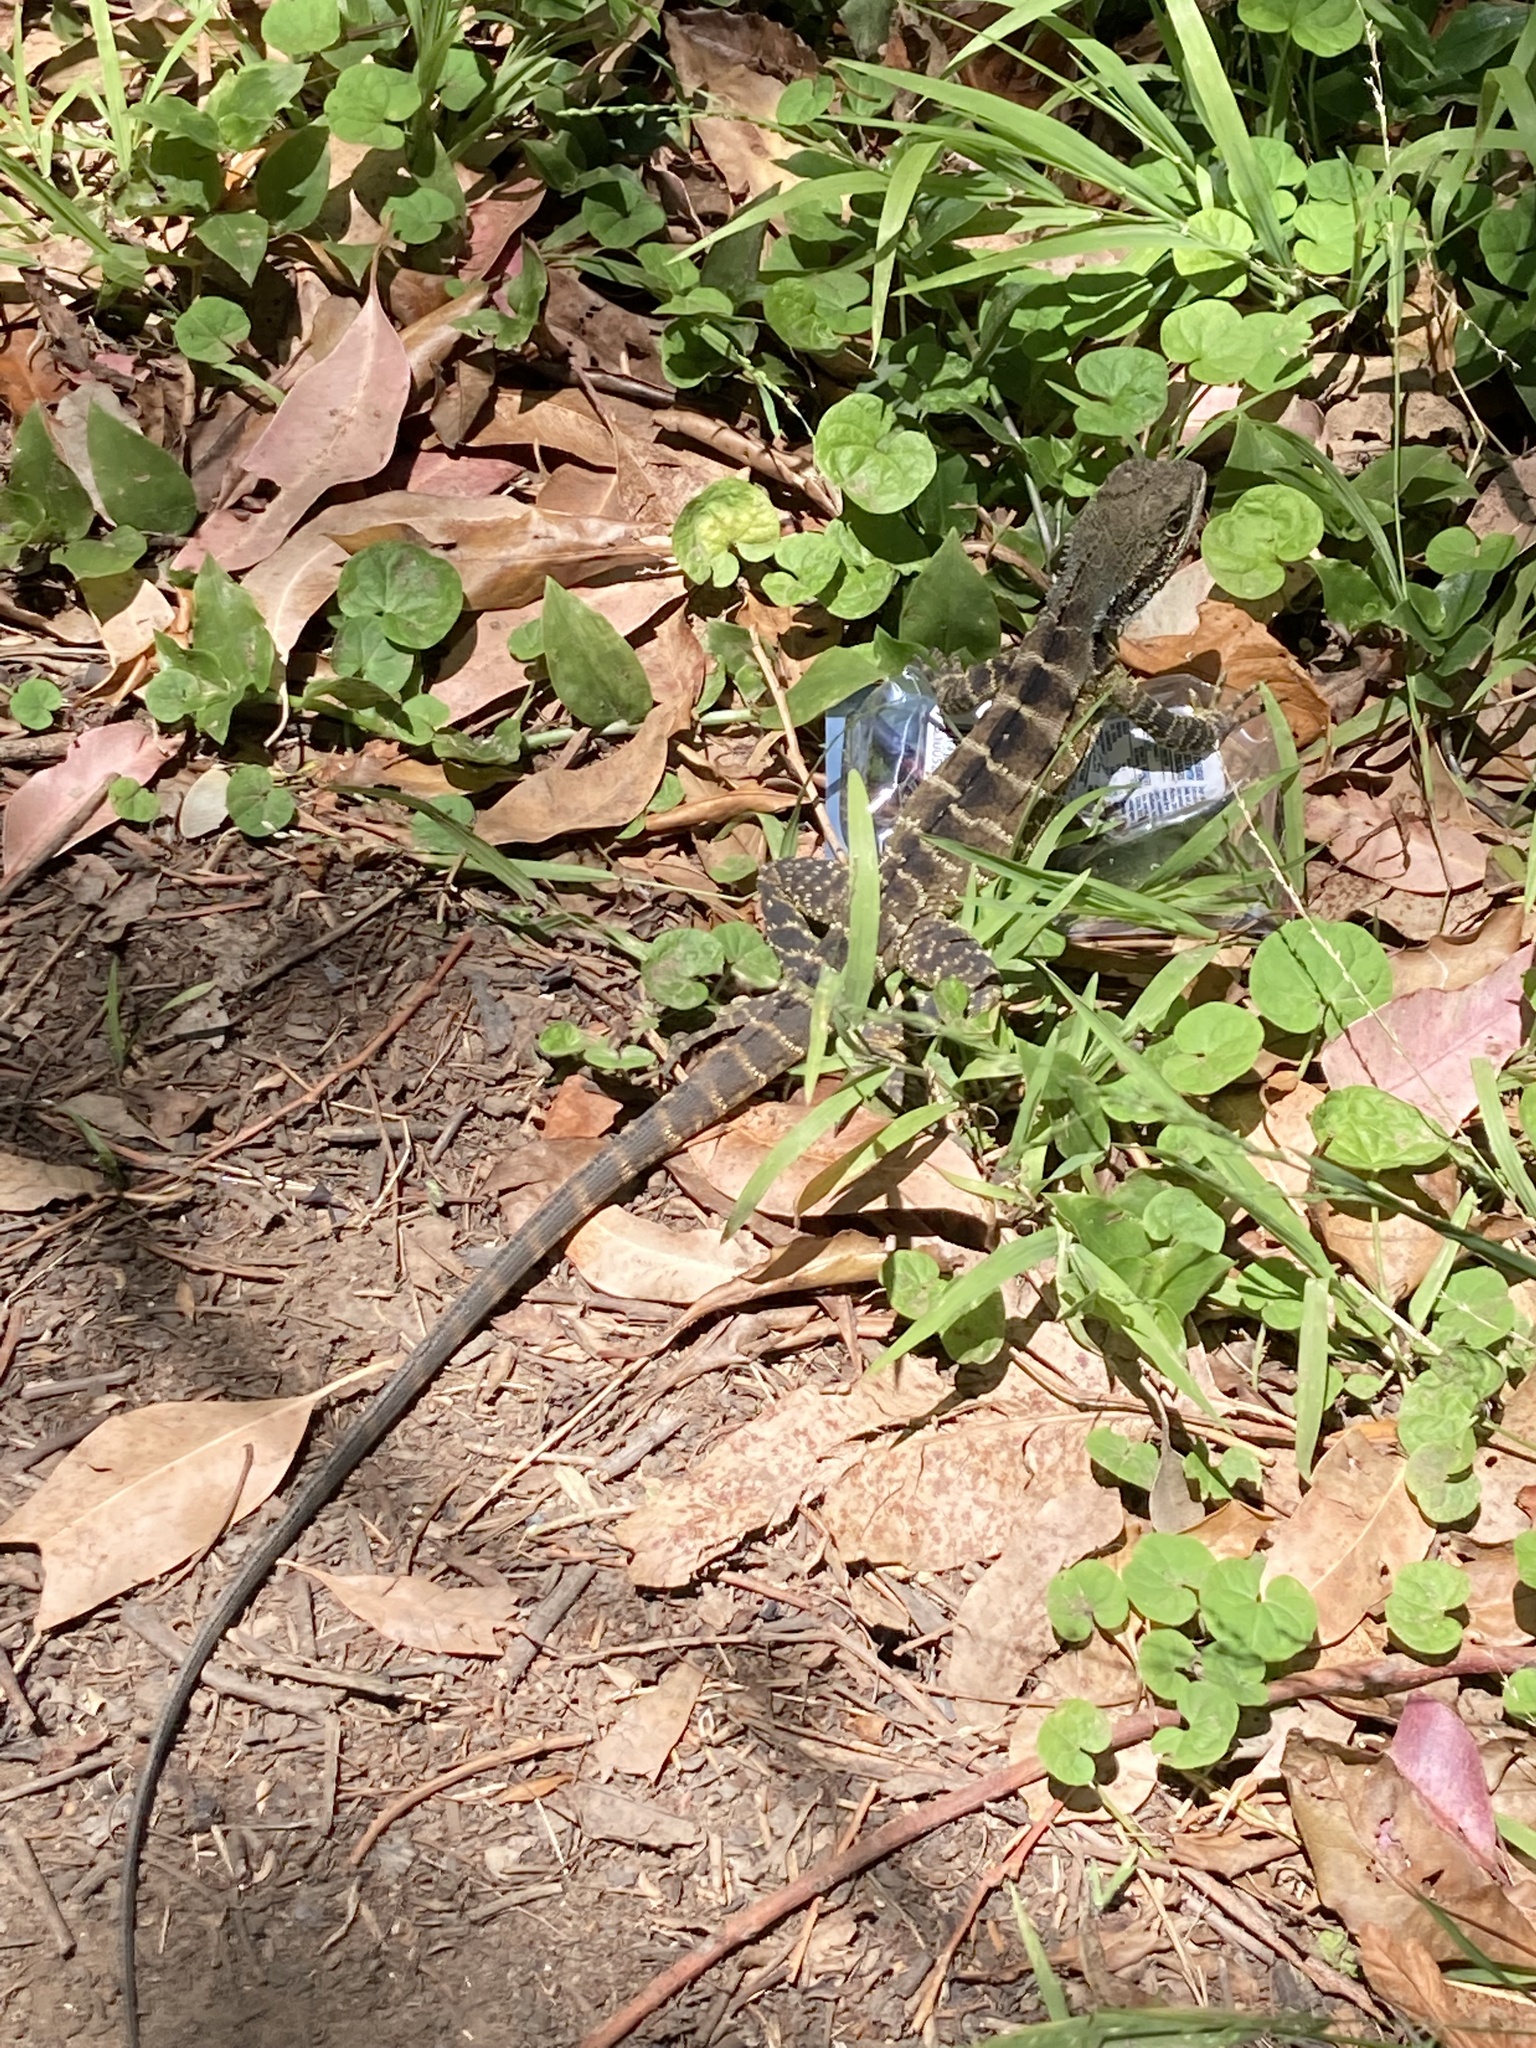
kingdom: Animalia
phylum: Chordata
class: Squamata
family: Agamidae
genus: Intellagama
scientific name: Intellagama lesueurii
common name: Eastern water dragon
